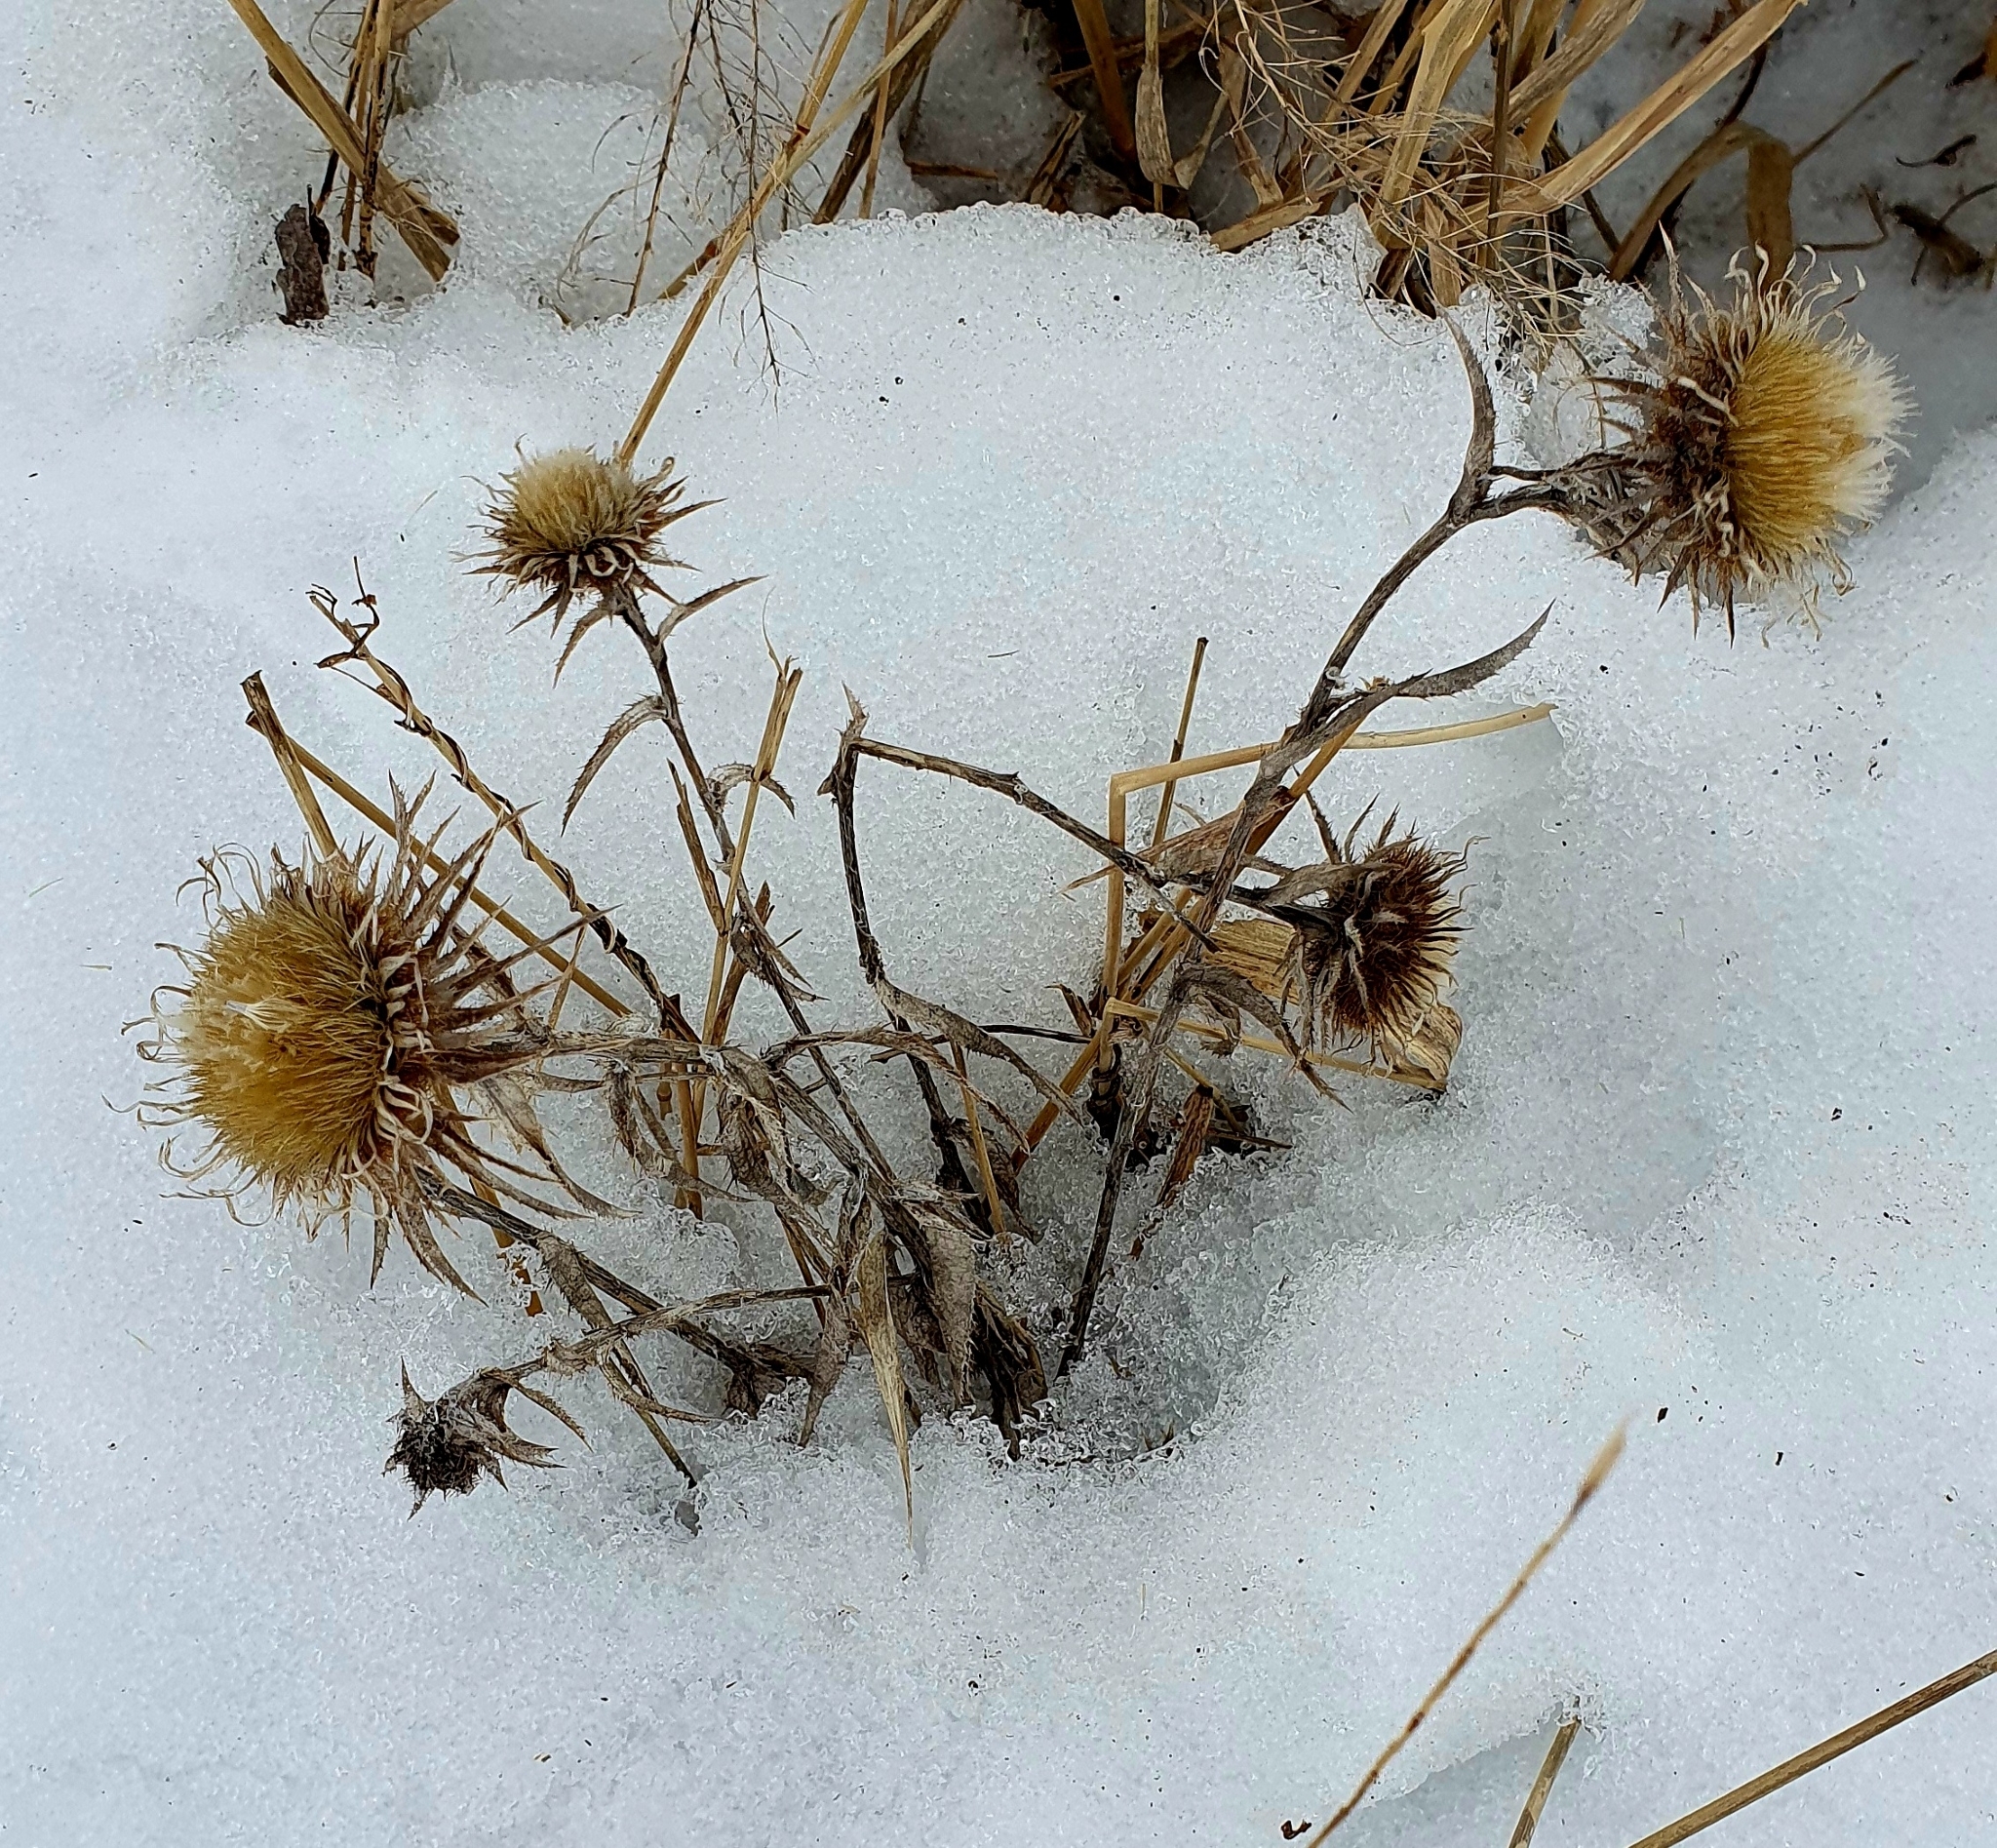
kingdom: Plantae
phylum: Tracheophyta
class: Magnoliopsida
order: Asterales
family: Asteraceae
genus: Carlina
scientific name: Carlina biebersteinii
